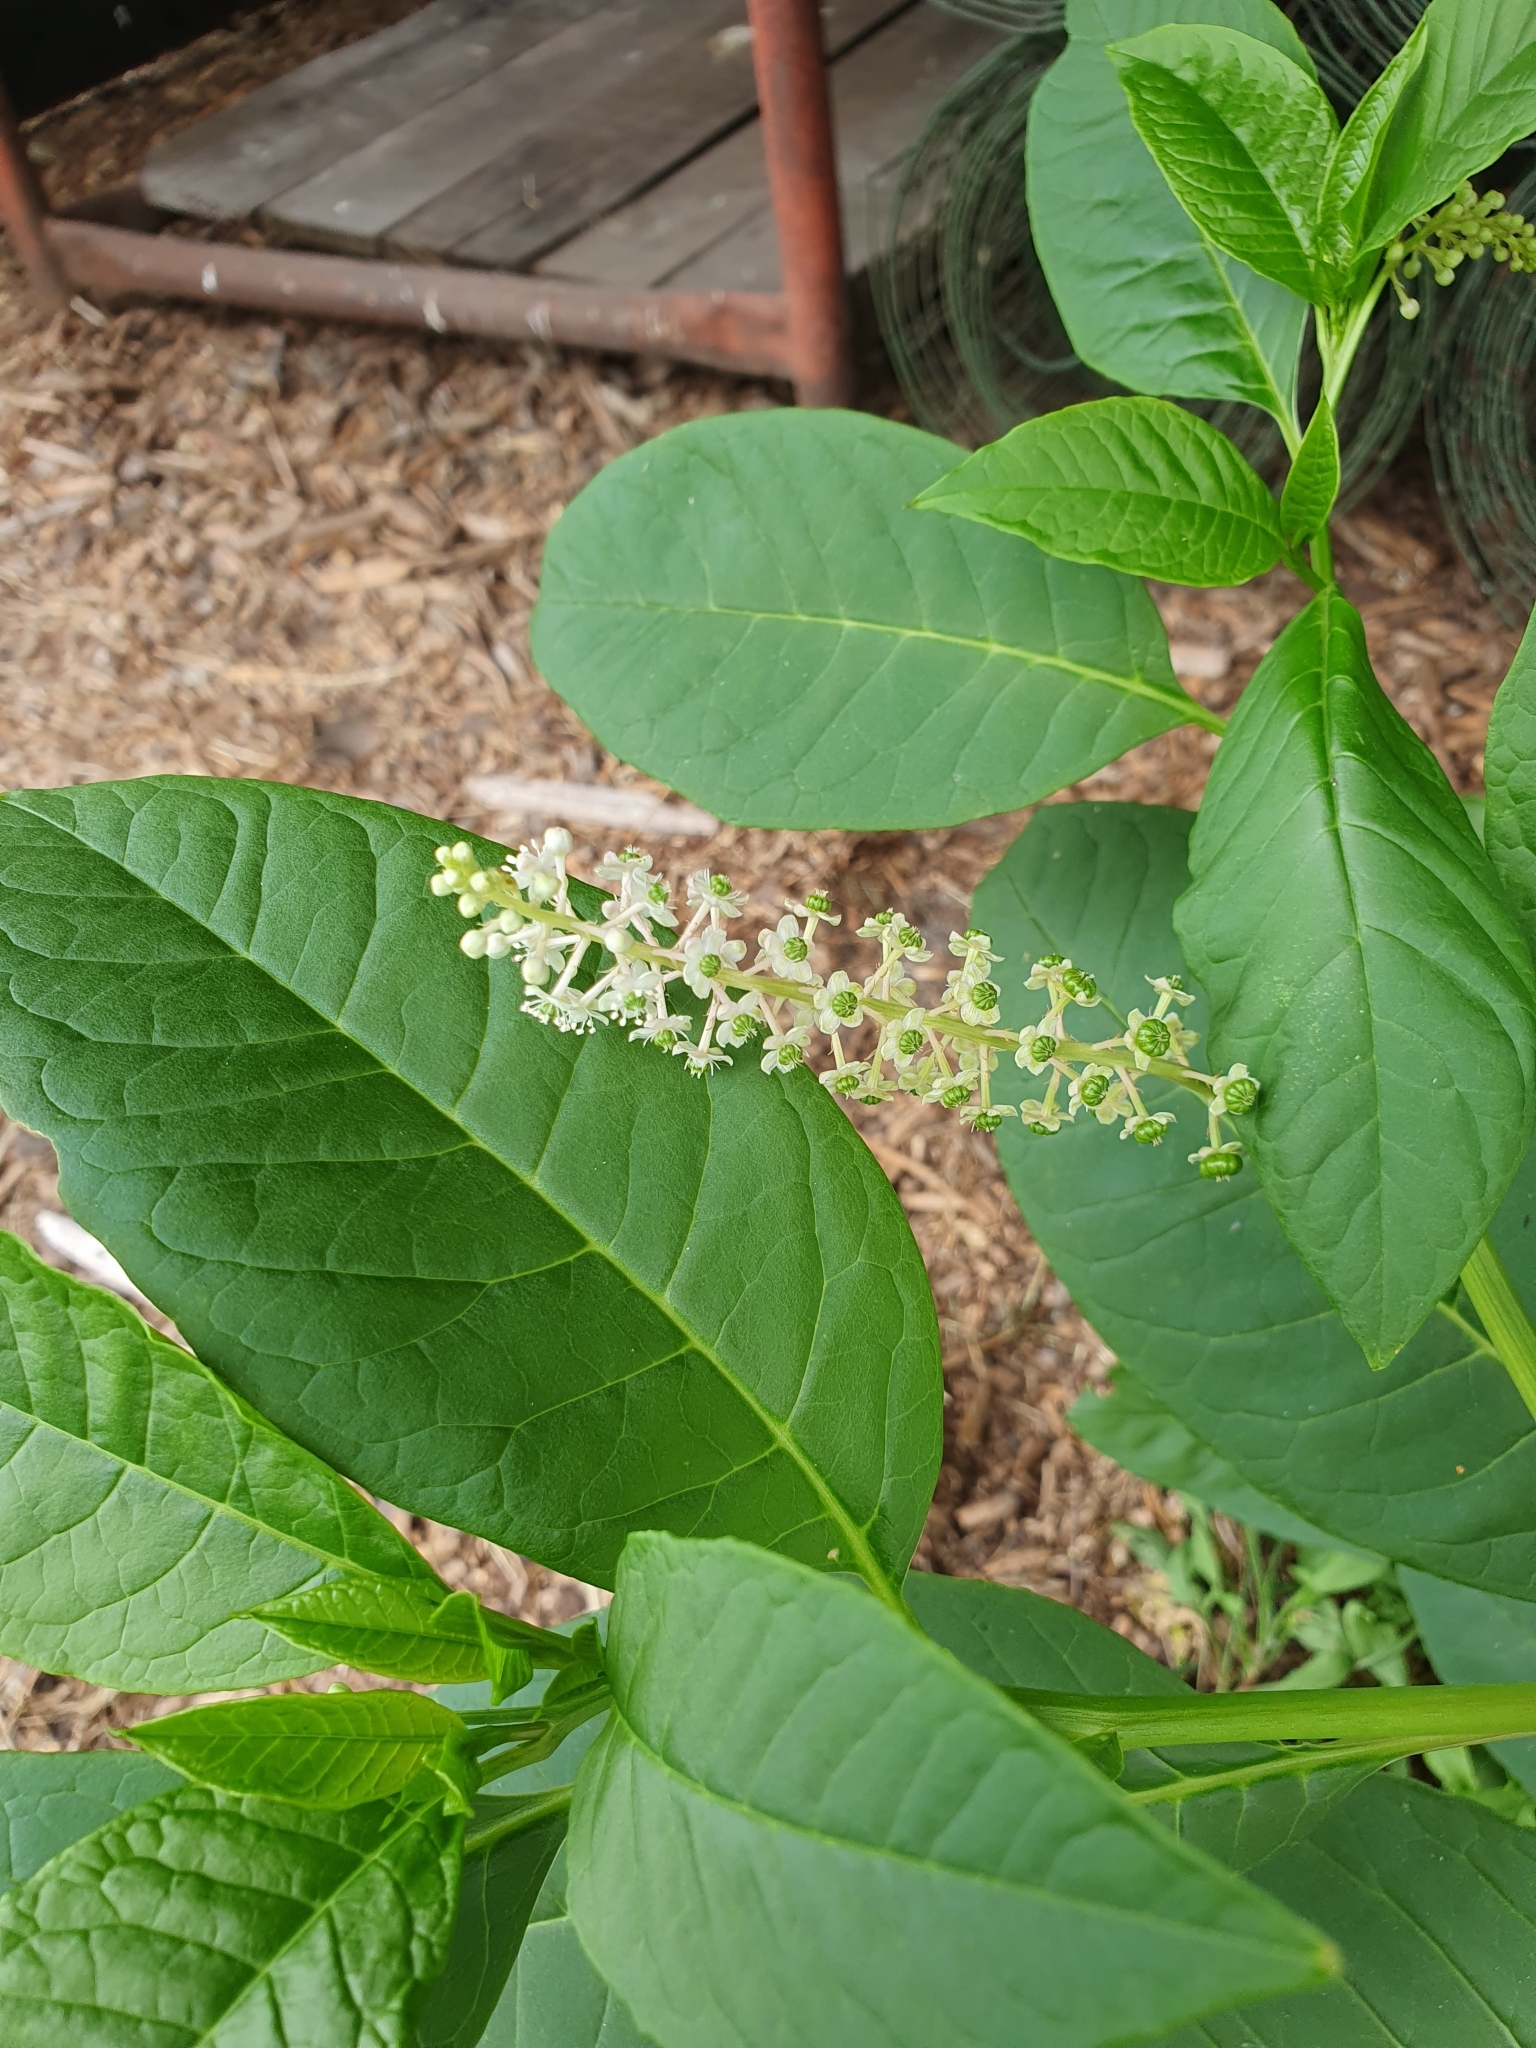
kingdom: Plantae
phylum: Tracheophyta
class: Magnoliopsida
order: Caryophyllales
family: Phytolaccaceae
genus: Phytolacca
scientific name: Phytolacca americana
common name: American pokeweed
